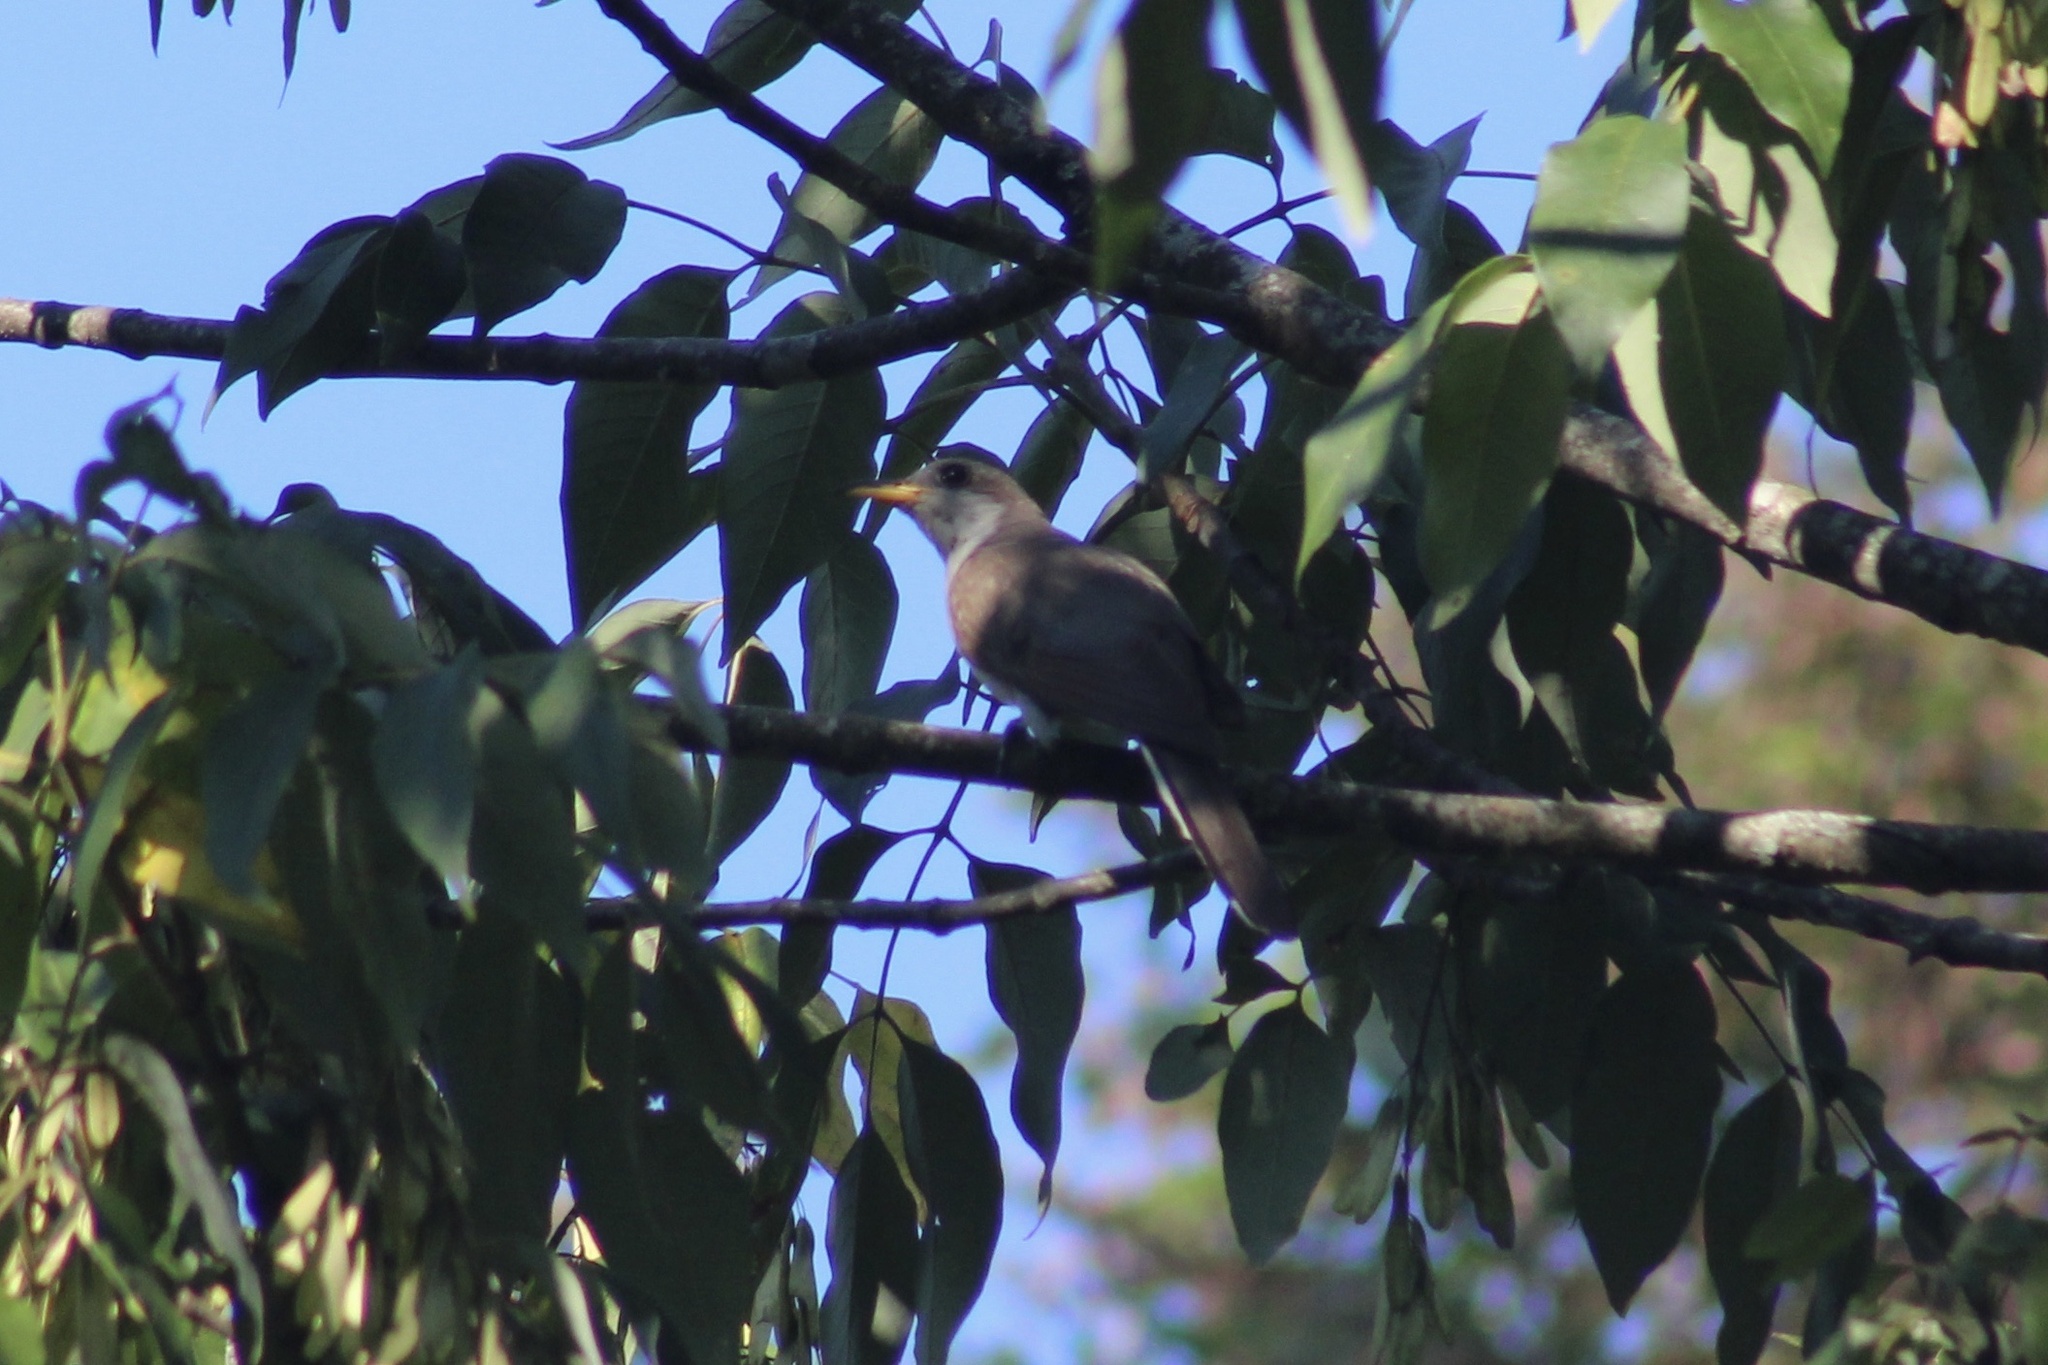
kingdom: Animalia
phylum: Chordata
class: Aves
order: Cuculiformes
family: Cuculidae
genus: Coccyzus
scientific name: Coccyzus americanus
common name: Yellow-billed cuckoo
